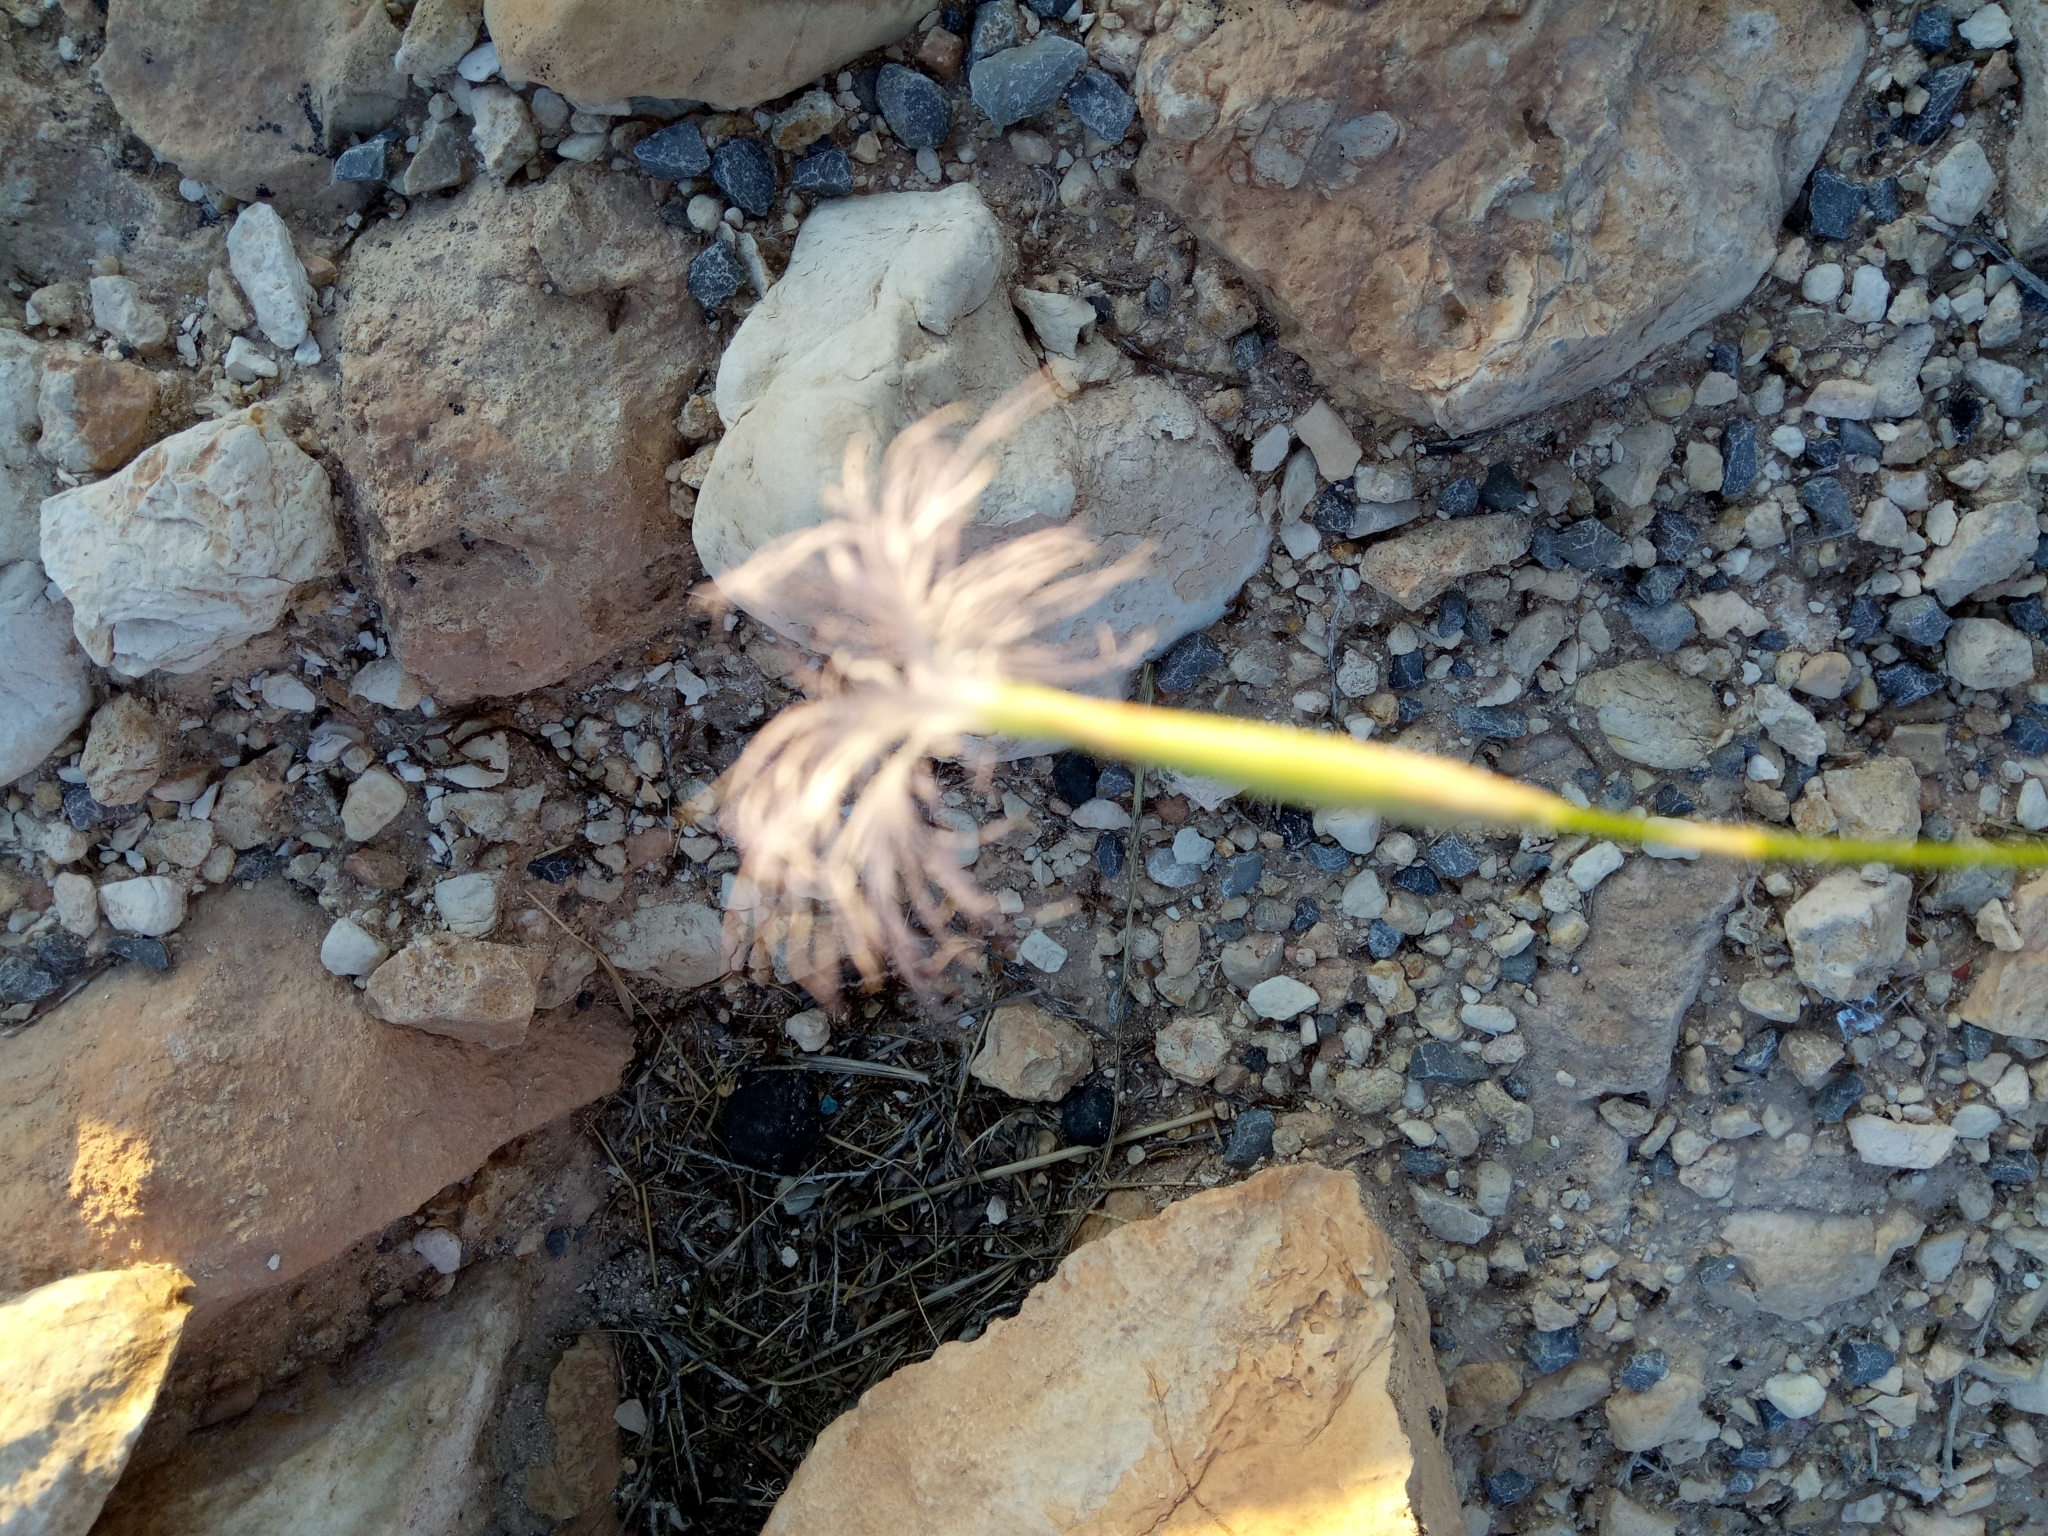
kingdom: Plantae
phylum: Tracheophyta
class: Magnoliopsida
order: Caryophyllales
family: Caryophyllaceae
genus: Dianthus
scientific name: Dianthus crinitus
